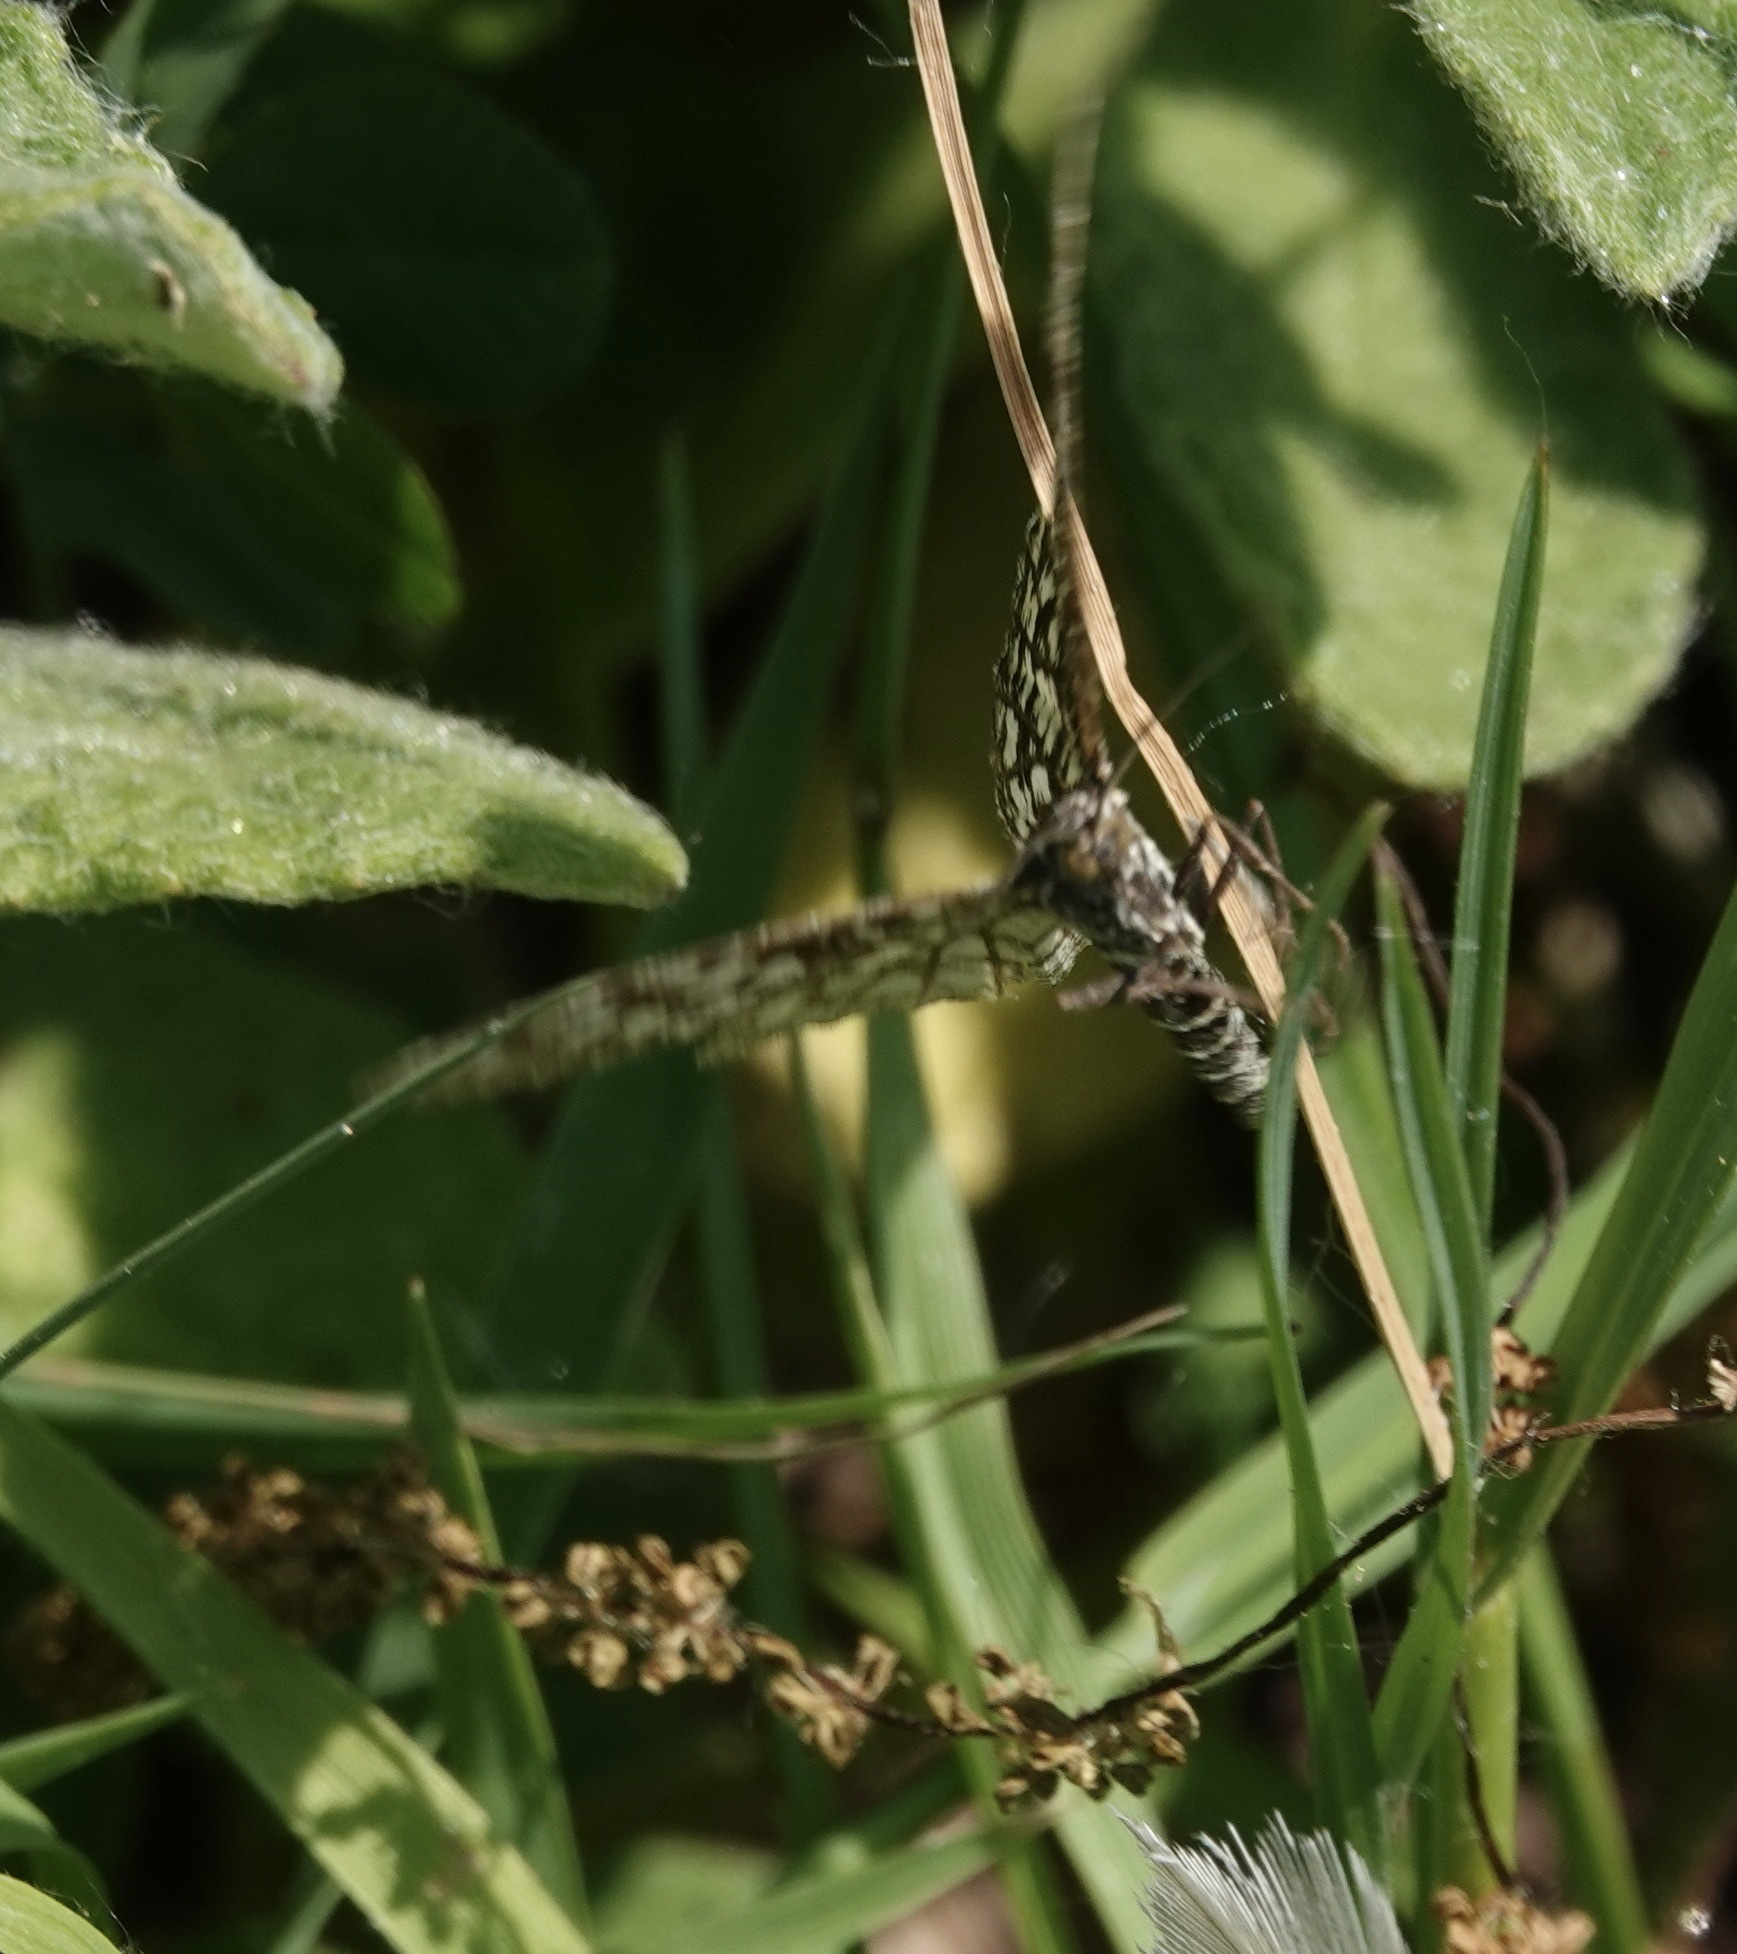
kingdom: Animalia
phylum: Arthropoda
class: Insecta
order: Lepidoptera
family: Geometridae
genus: Chiasmia
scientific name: Chiasmia clathrata
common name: Latticed heath
